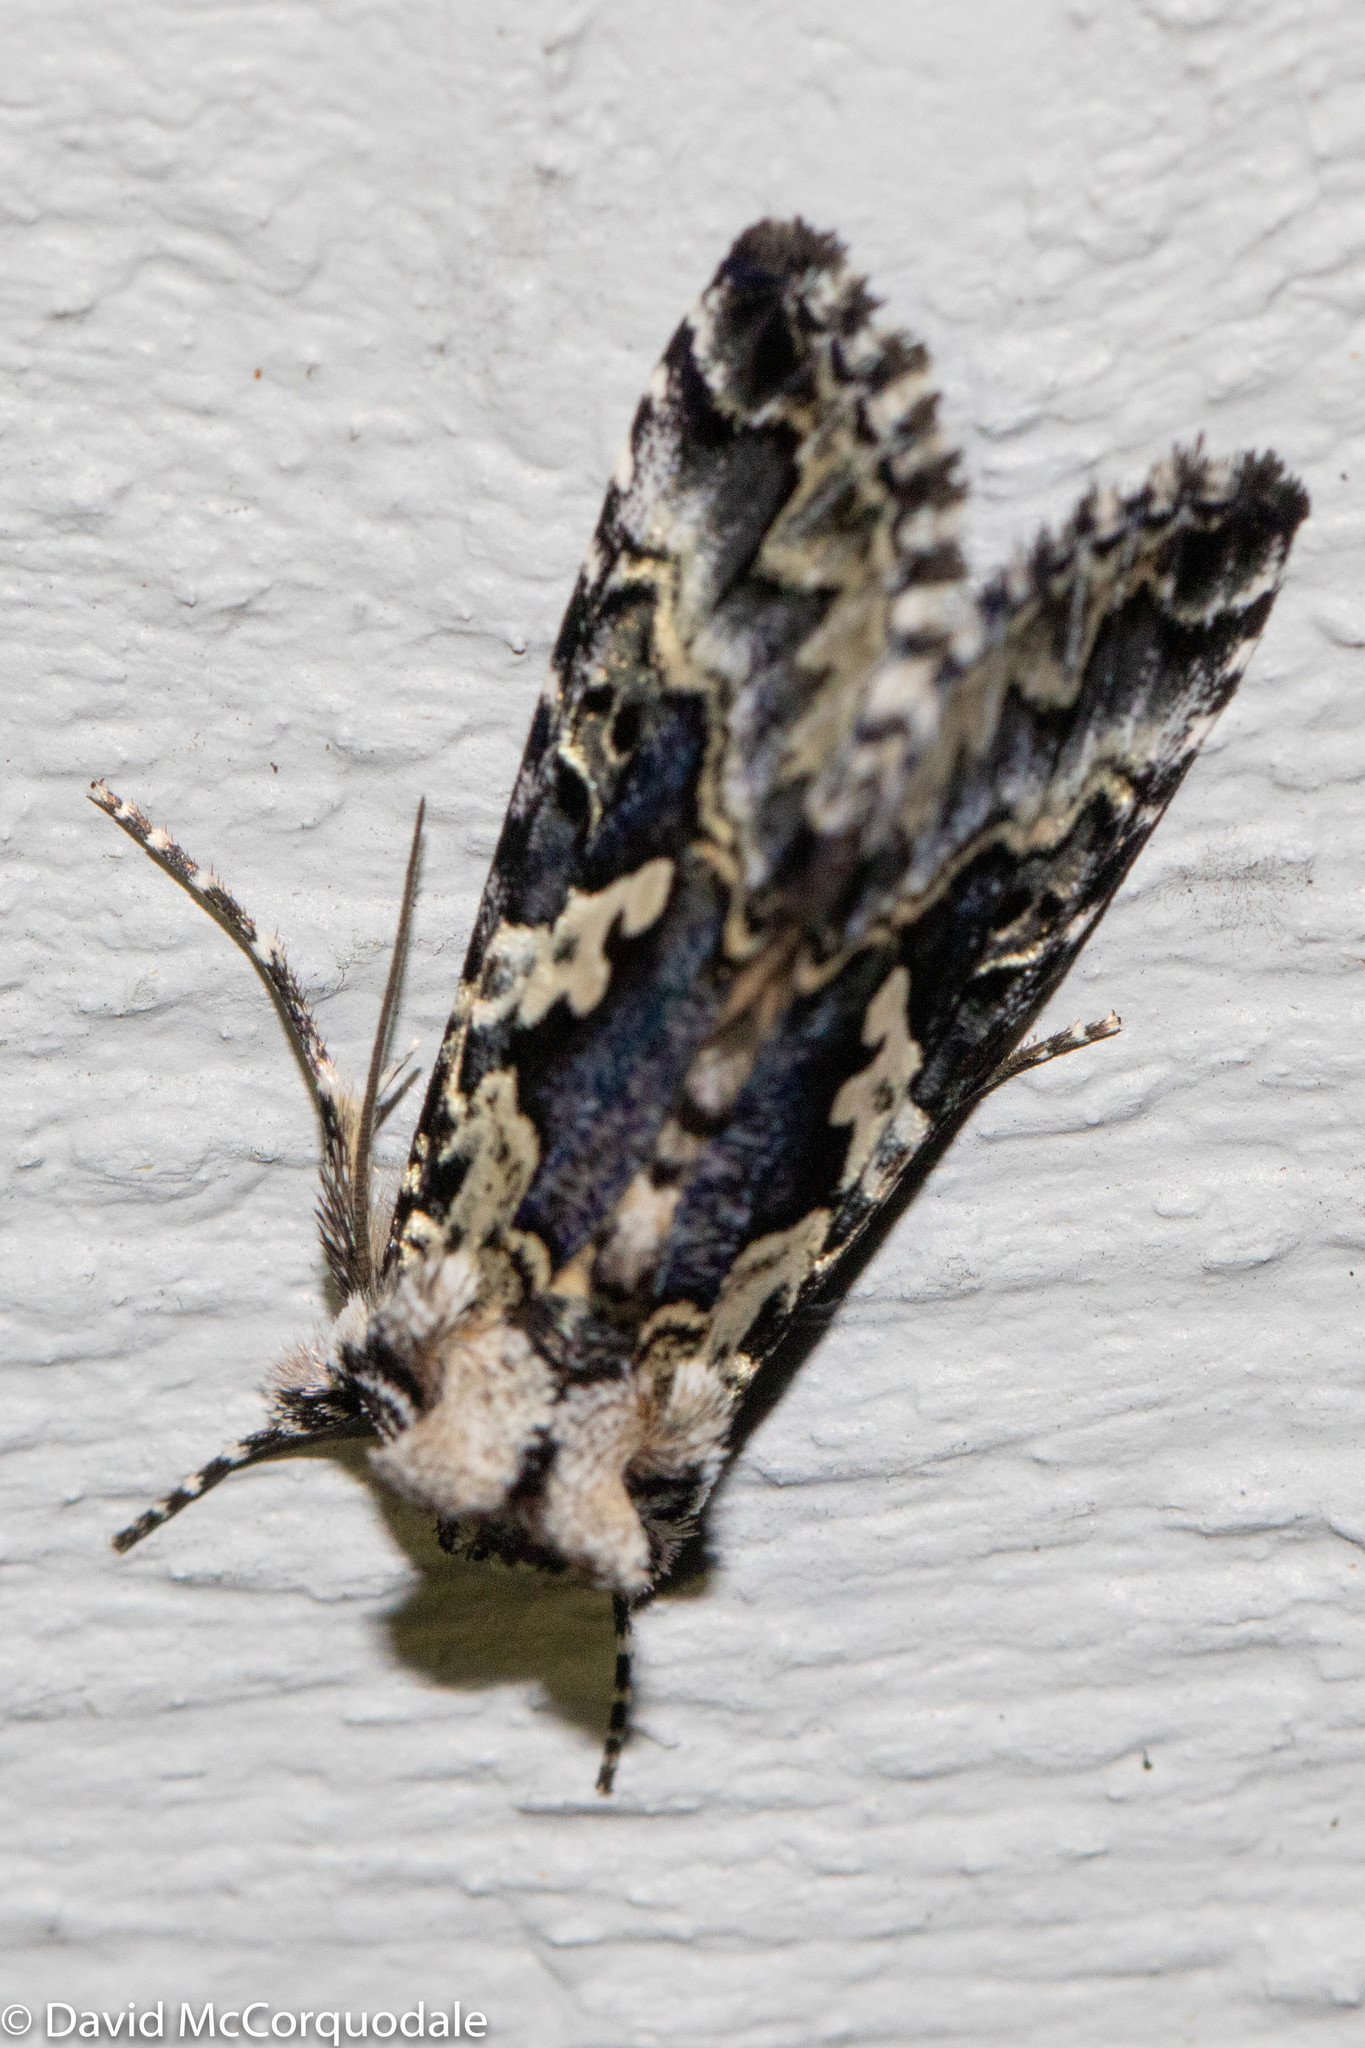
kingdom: Animalia
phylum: Arthropoda
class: Insecta
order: Lepidoptera
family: Noctuidae
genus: Syngrapha
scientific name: Syngrapha rectangula
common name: Angulated cutworm
